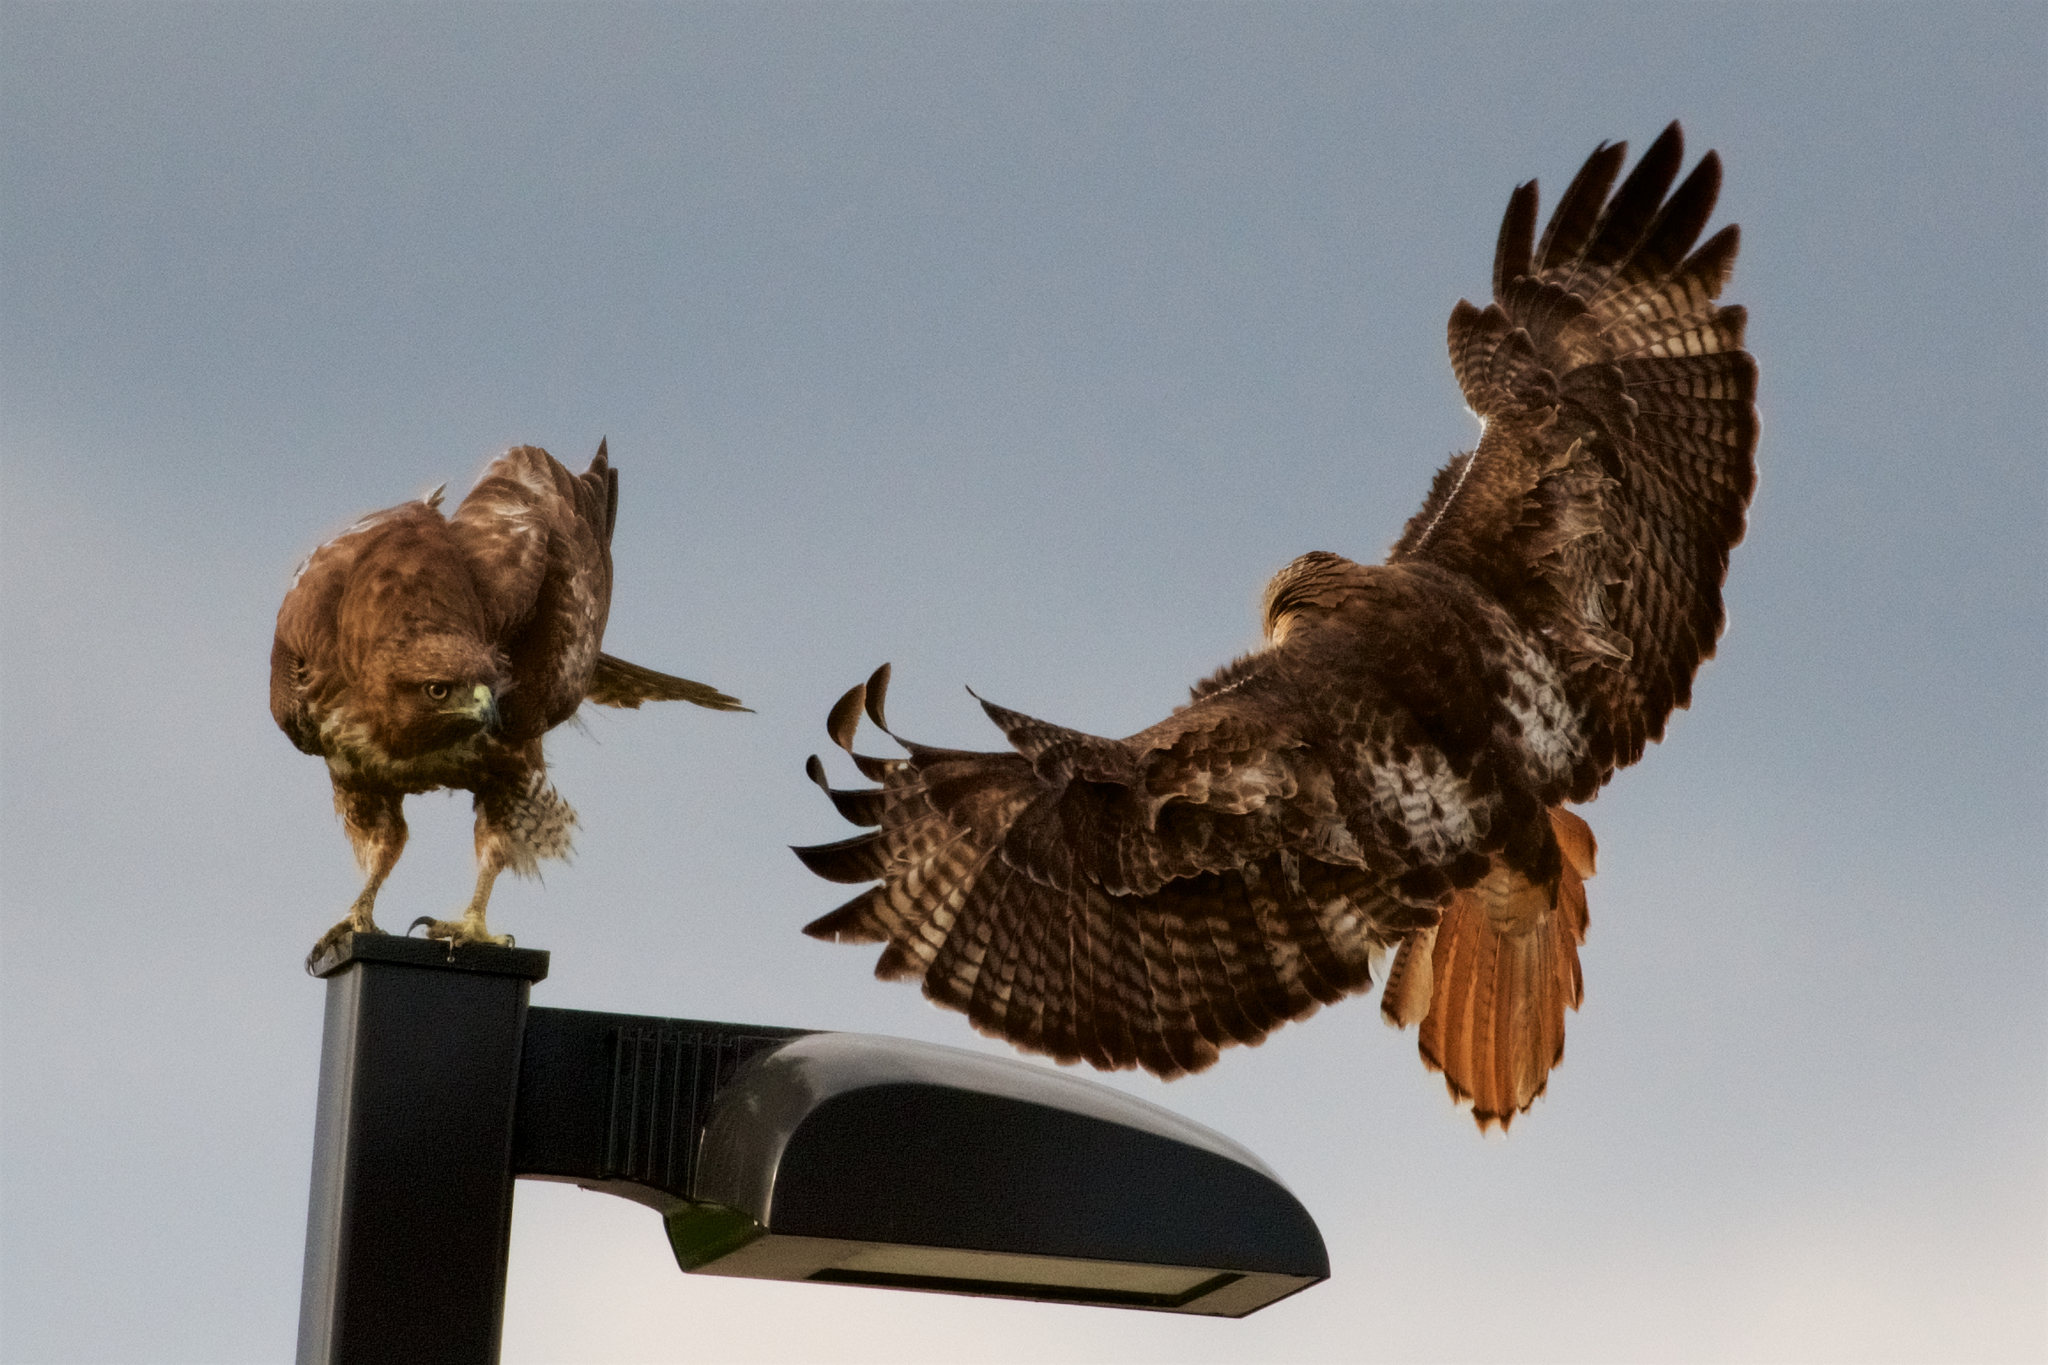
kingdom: Animalia
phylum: Chordata
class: Aves
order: Accipitriformes
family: Accipitridae
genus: Buteo
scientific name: Buteo jamaicensis
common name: Red-tailed hawk
